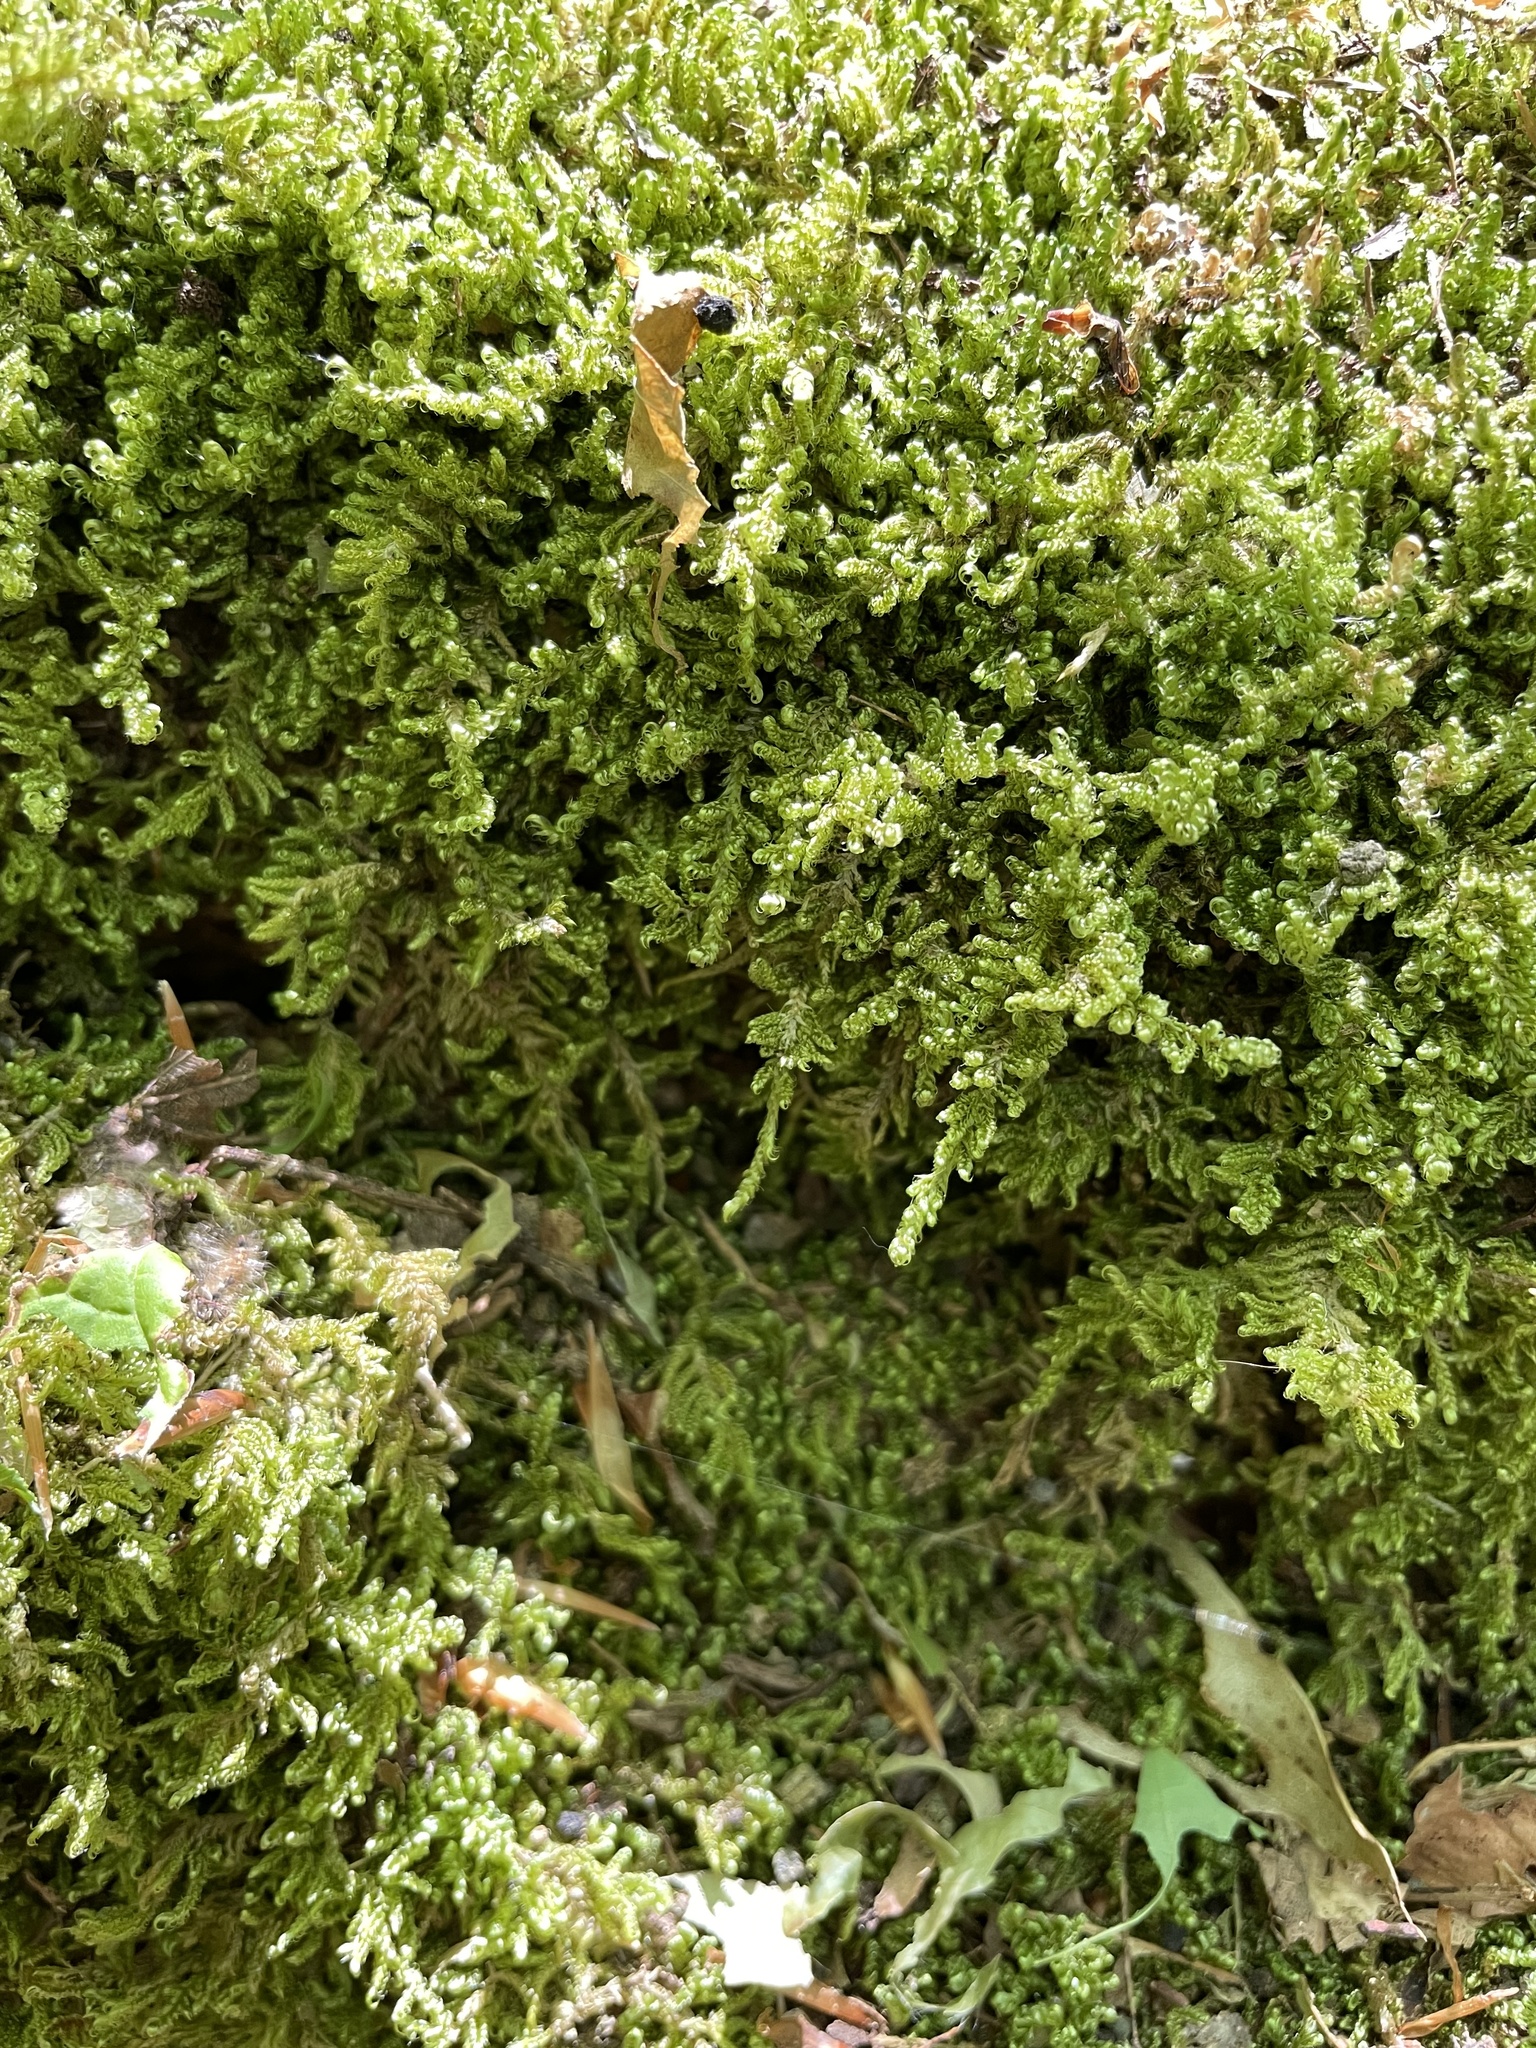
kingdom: Plantae
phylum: Bryophyta
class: Bryopsida
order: Hypnales
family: Callicladiaceae
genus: Callicladium
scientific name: Callicladium imponens
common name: Brocade moss
